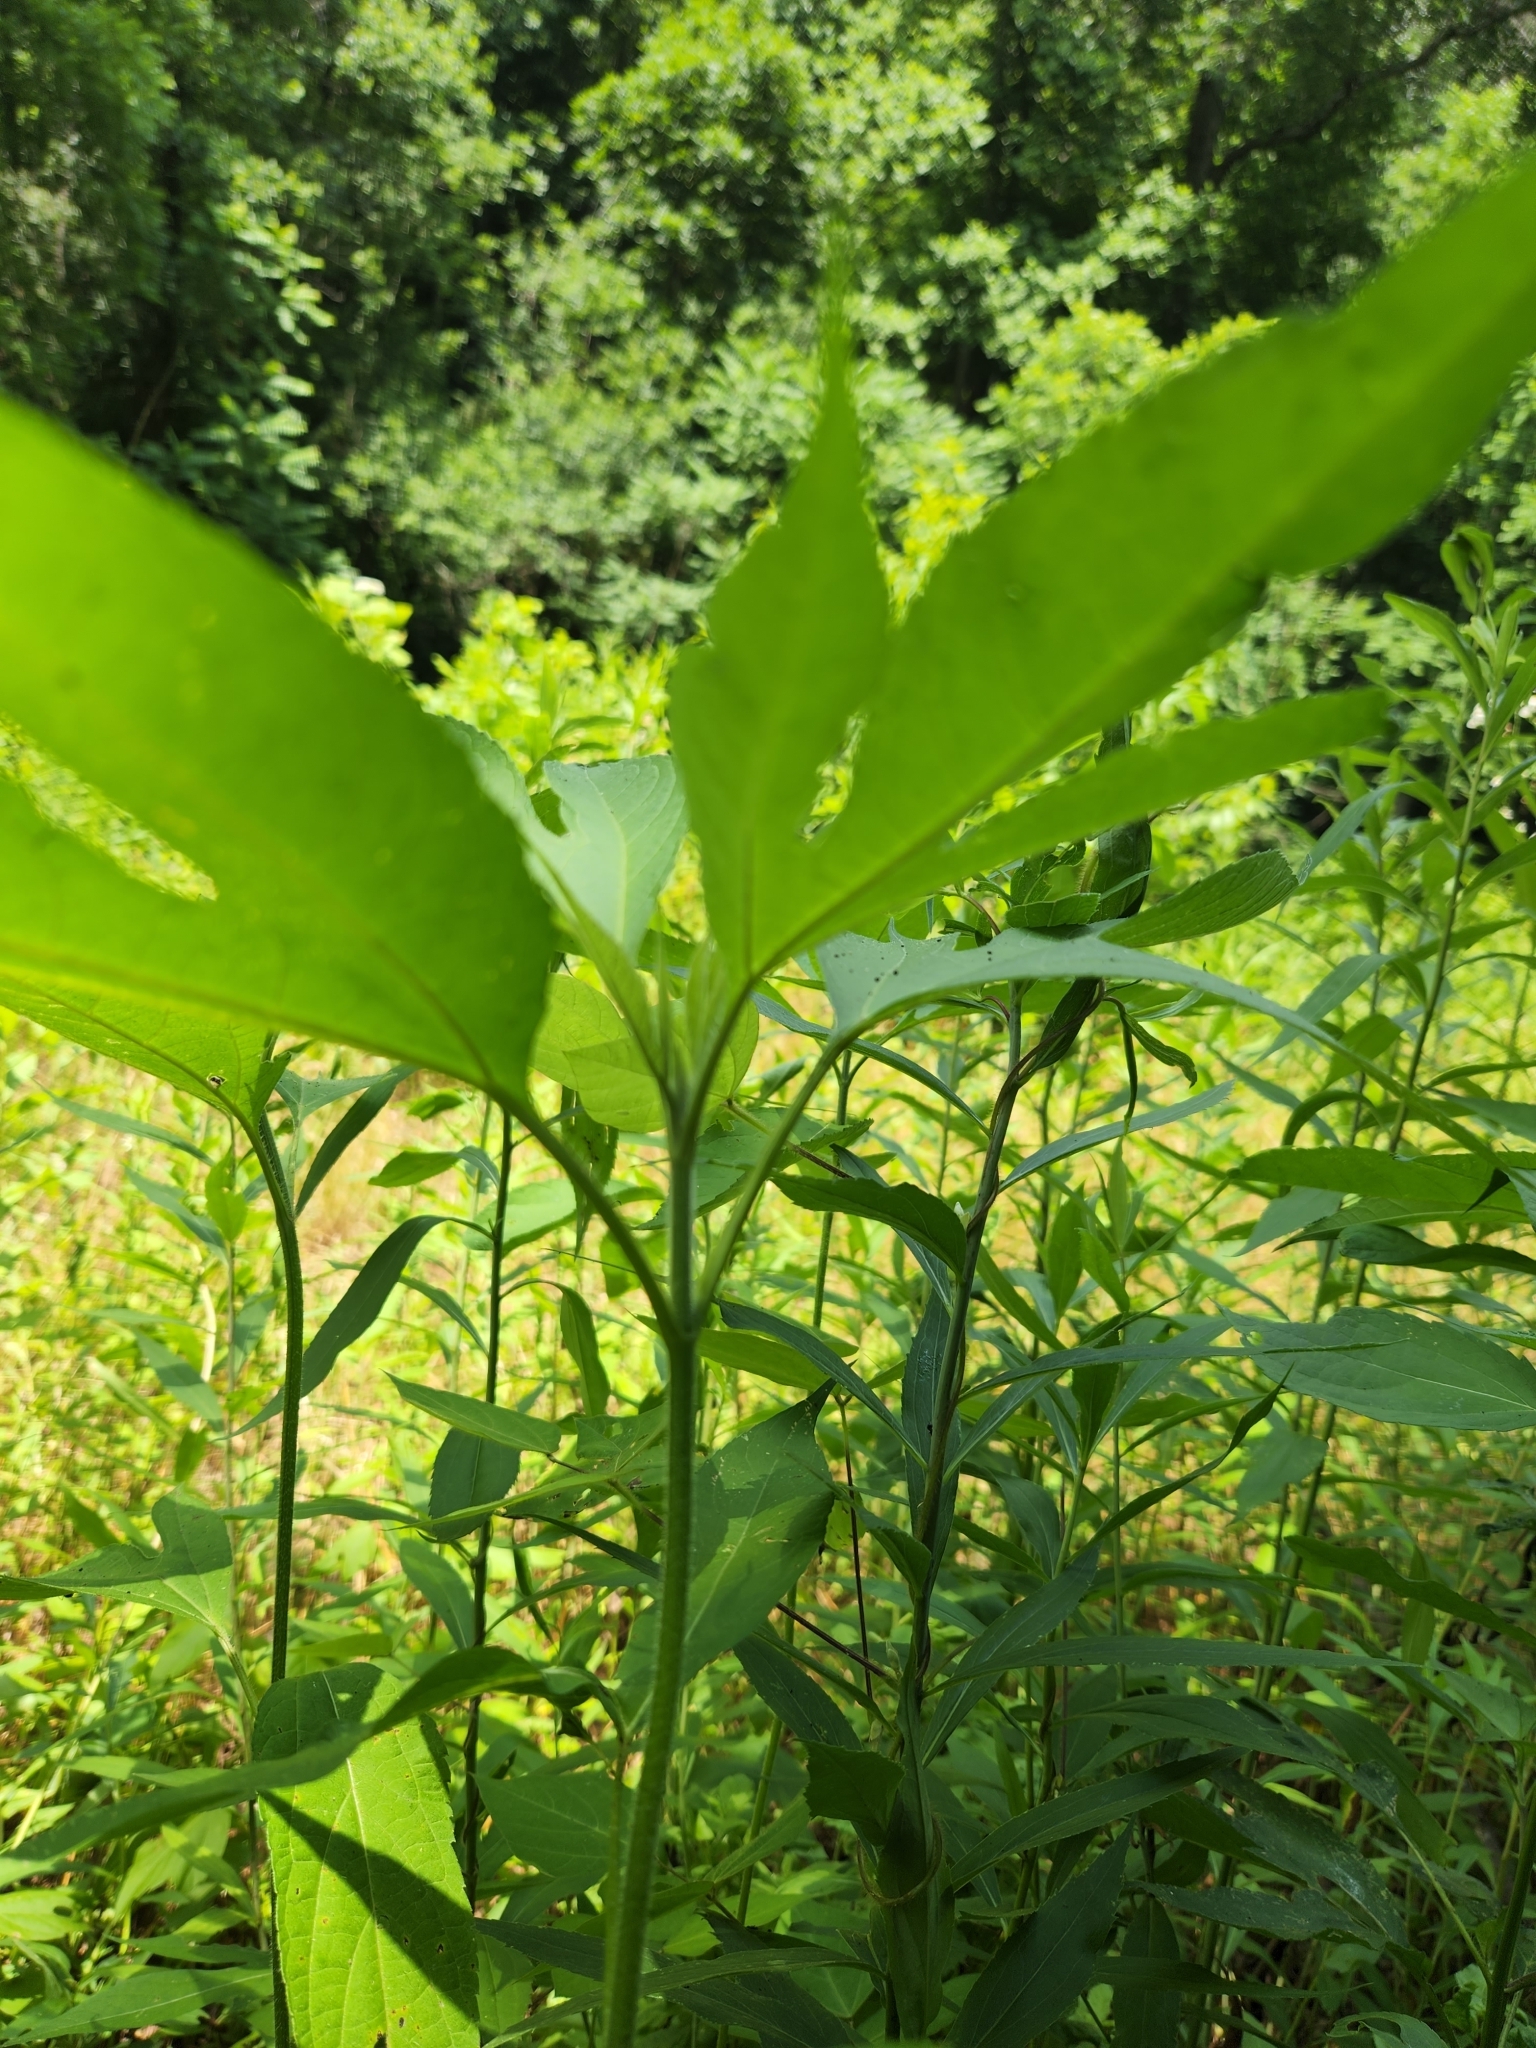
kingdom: Plantae
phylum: Tracheophyta
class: Magnoliopsida
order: Asterales
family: Asteraceae
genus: Ambrosia
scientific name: Ambrosia trifida
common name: Giant ragweed
